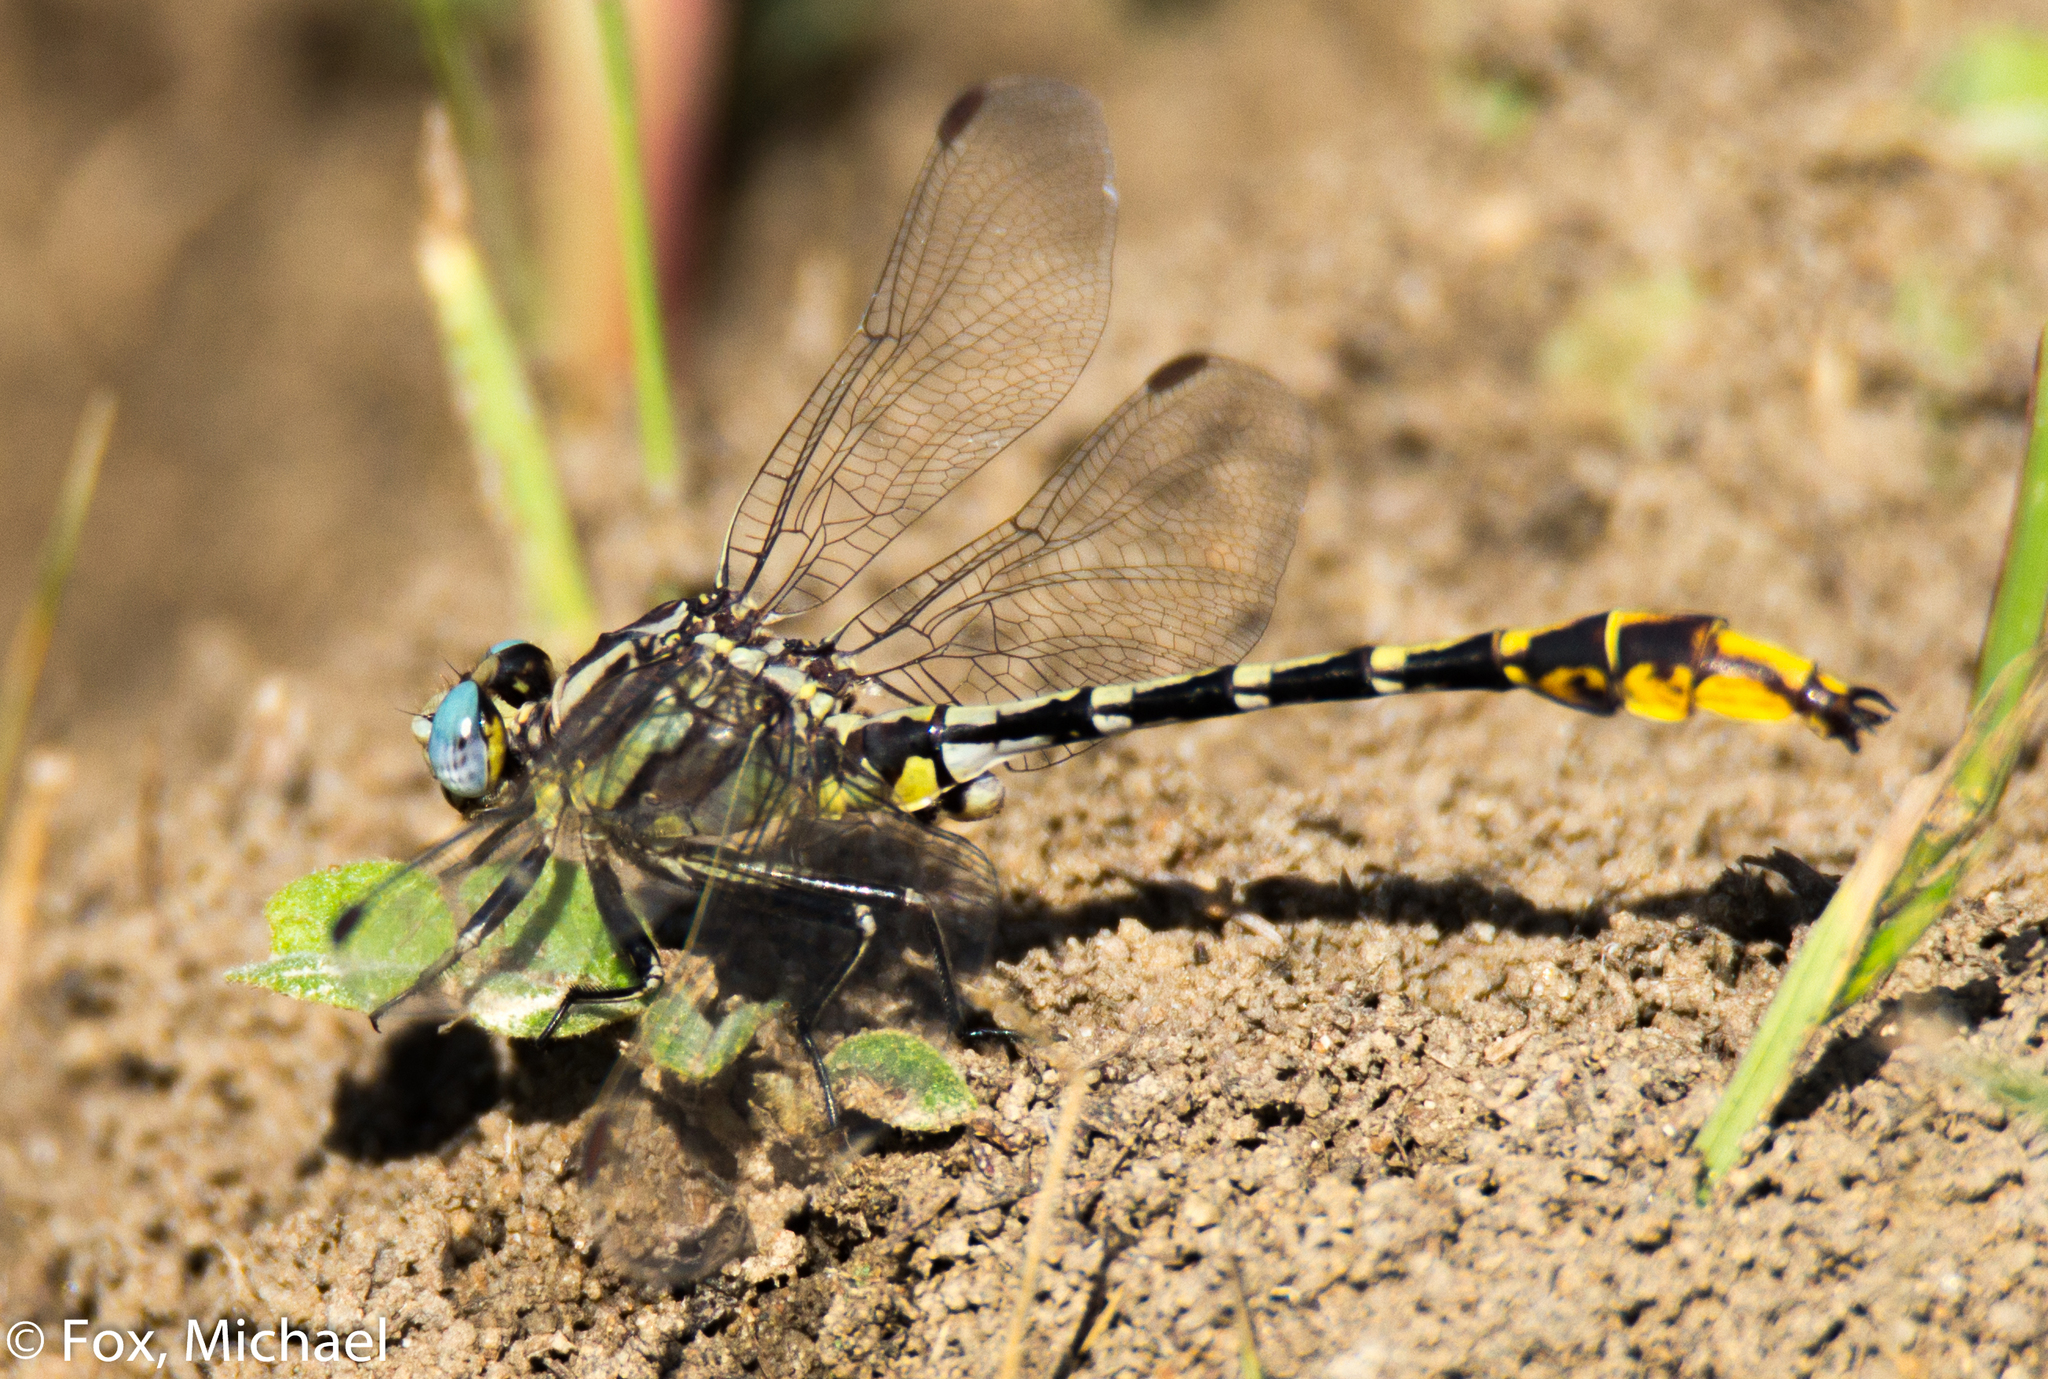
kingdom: Animalia
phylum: Arthropoda
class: Insecta
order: Odonata
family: Gomphidae
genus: Phanogomphus
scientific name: Phanogomphus militaris
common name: Sulphur-tipped clubtail
